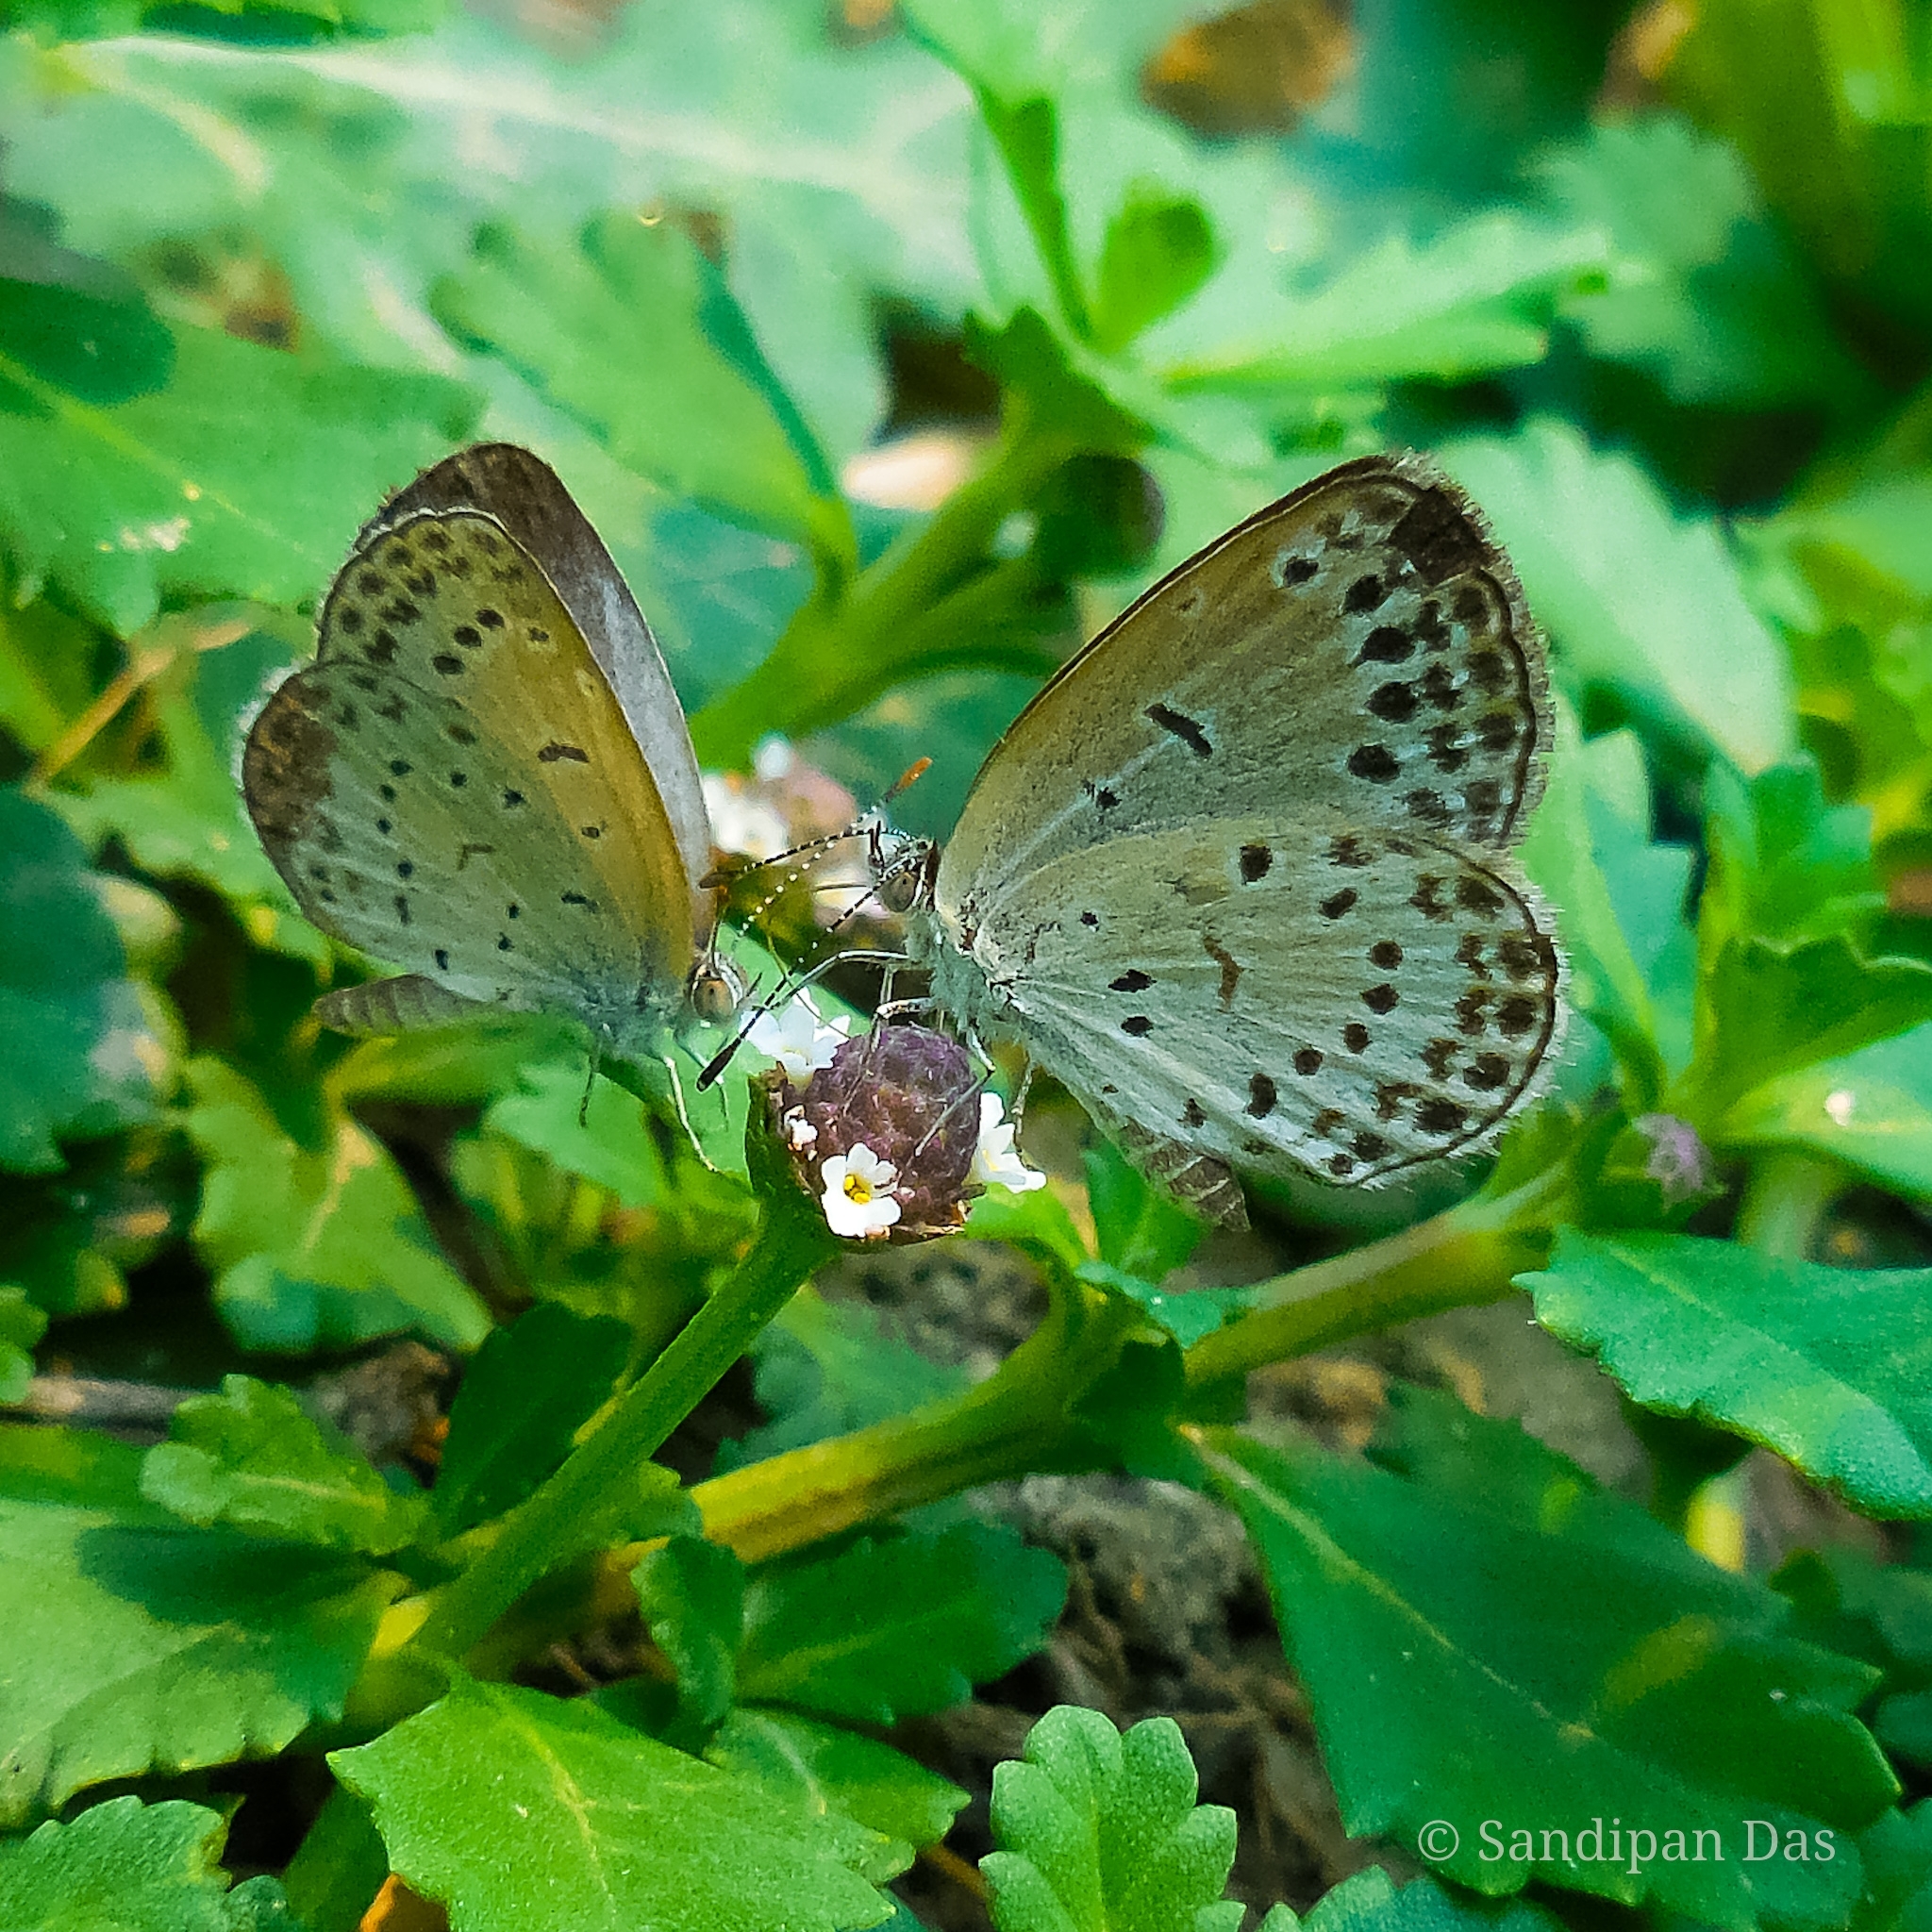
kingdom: Animalia
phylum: Arthropoda
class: Insecta
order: Lepidoptera
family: Lycaenidae
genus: Pseudozizeeria
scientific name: Pseudozizeeria maha
